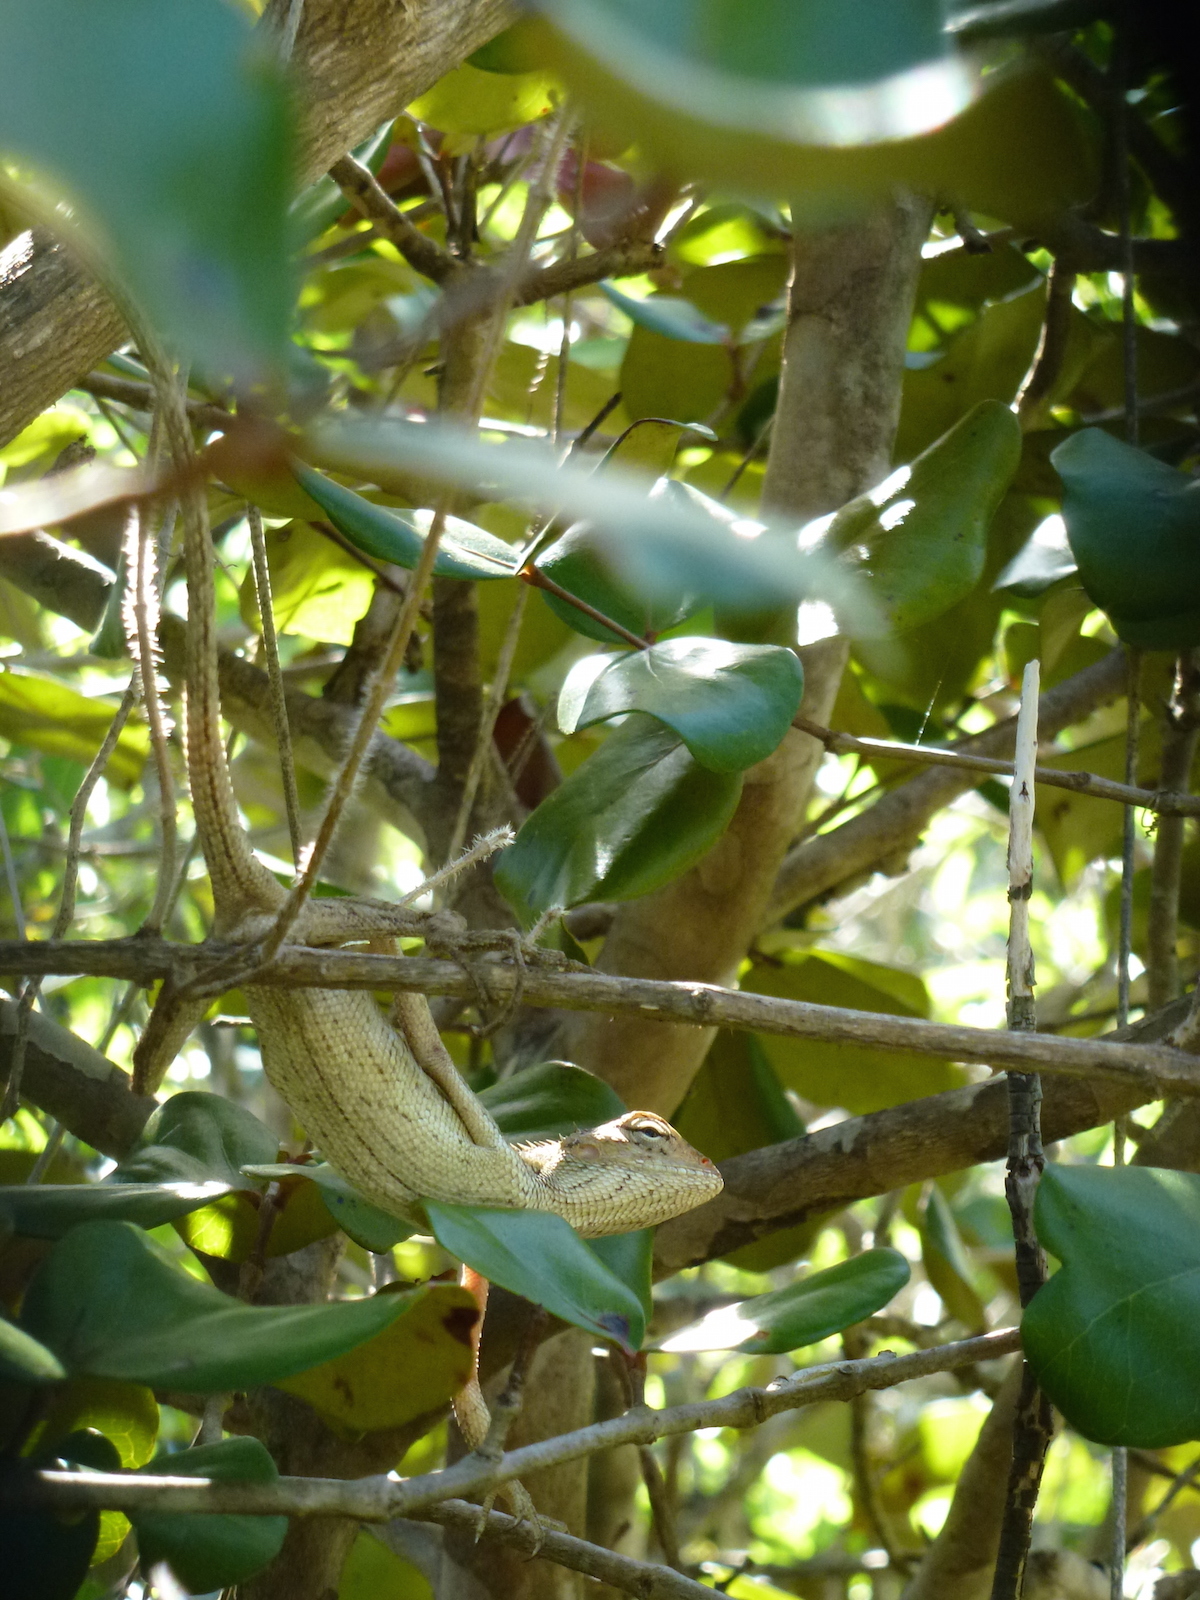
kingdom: Animalia
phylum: Chordata
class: Squamata
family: Agamidae
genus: Calotes
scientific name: Calotes versicolor
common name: Oriental garden lizard
